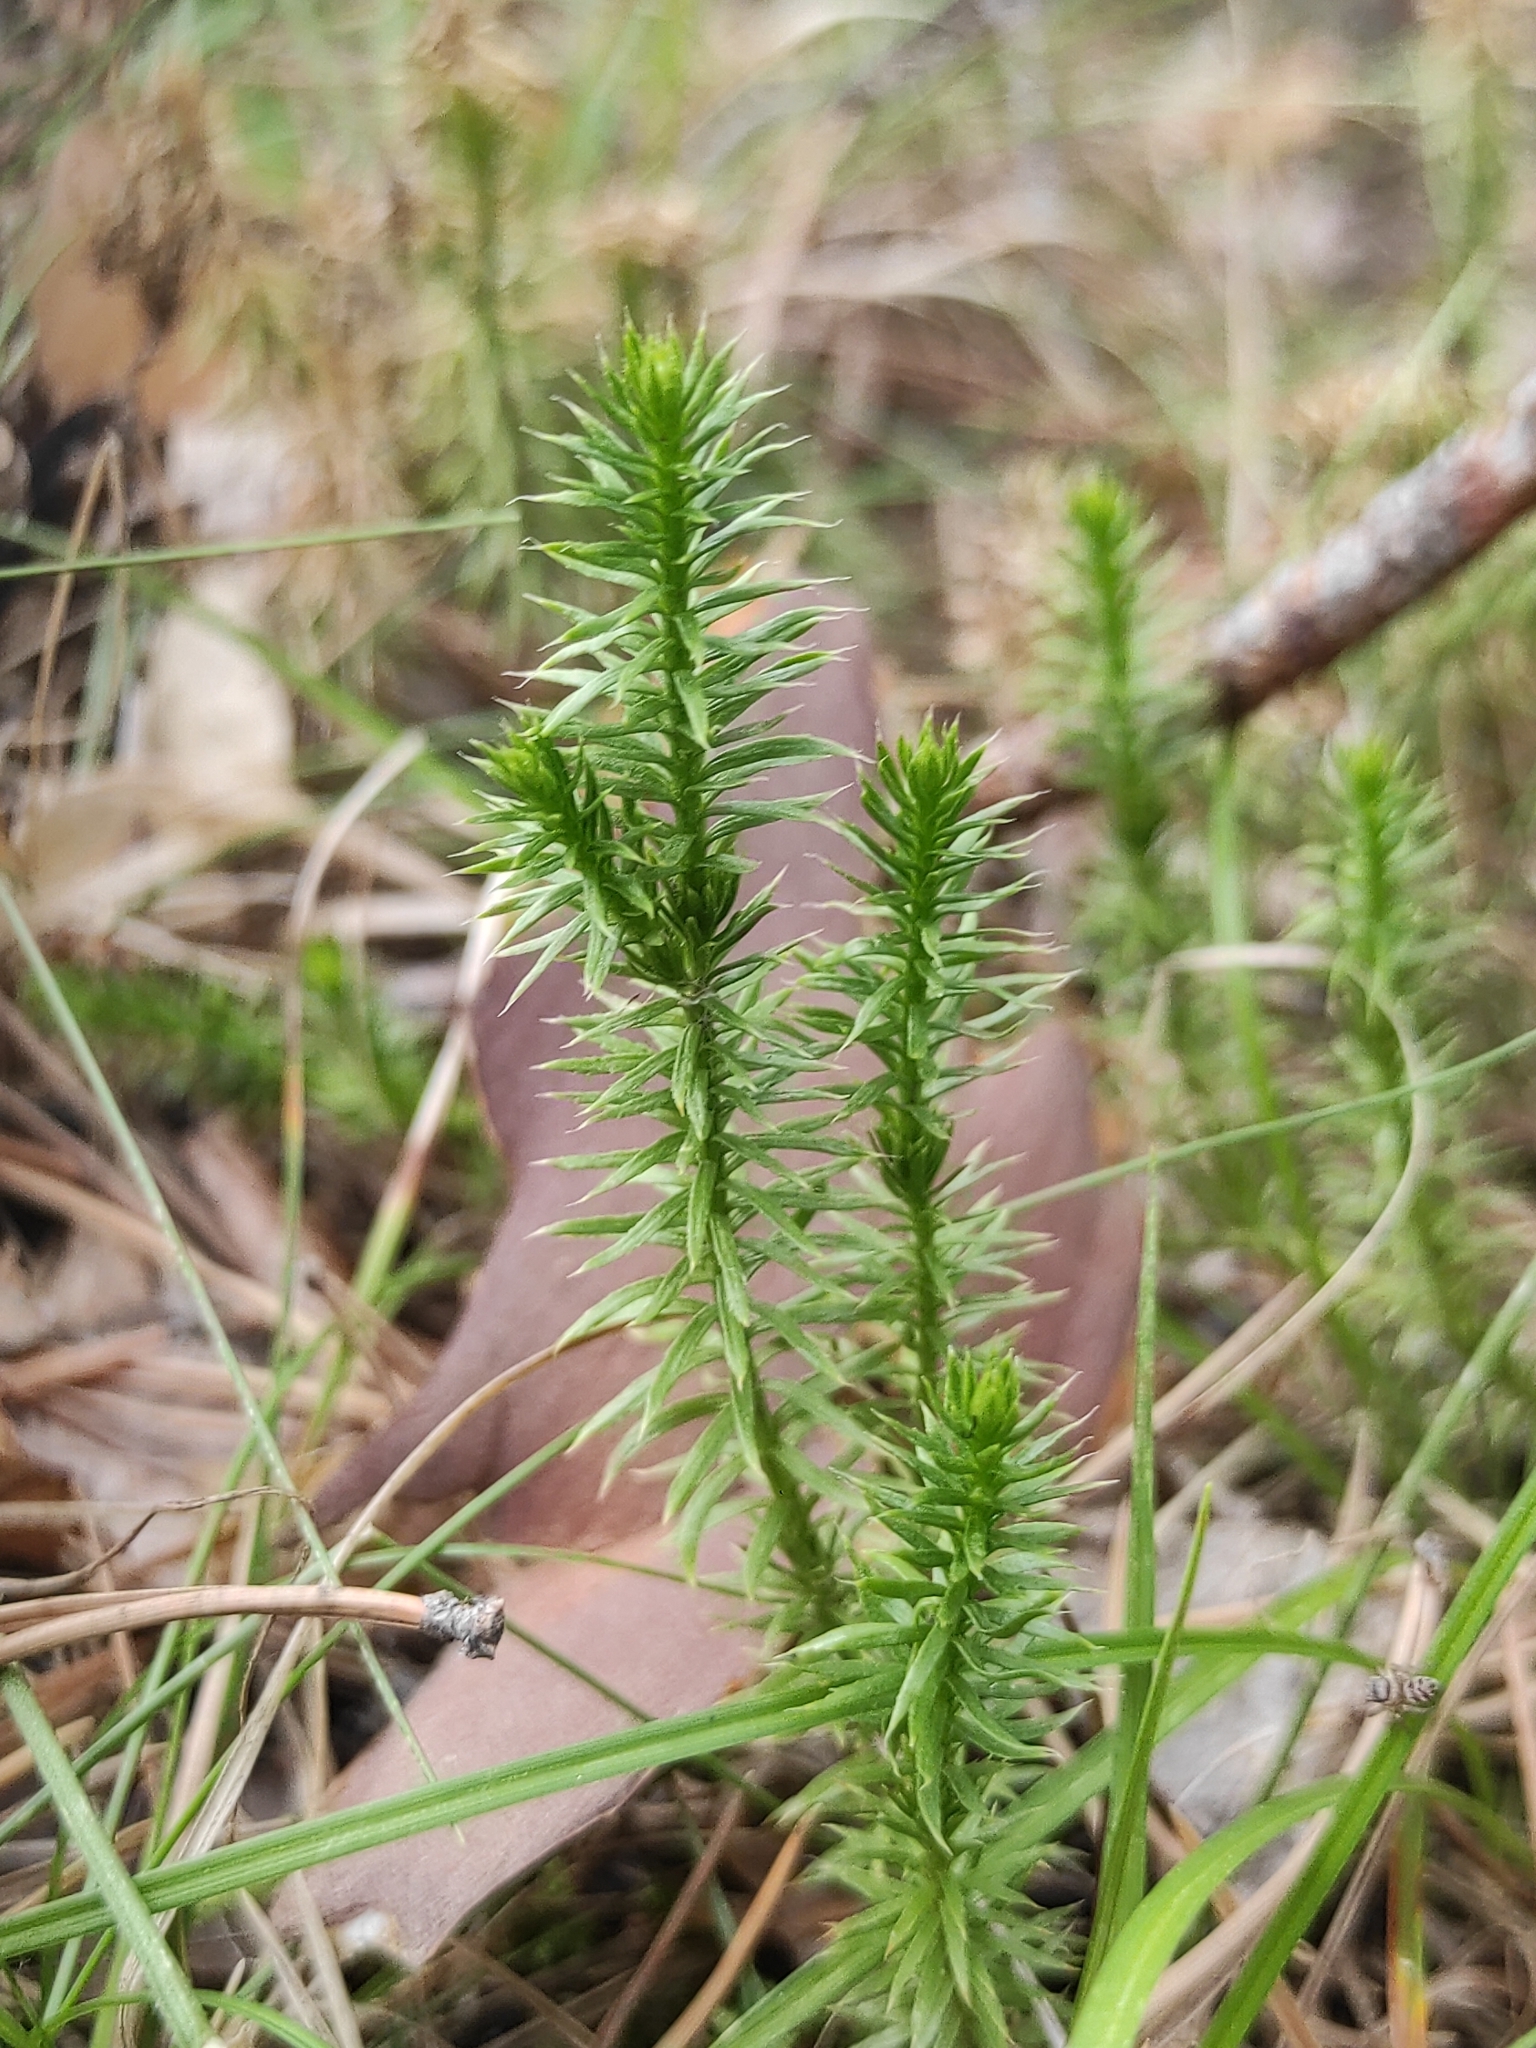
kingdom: Plantae
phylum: Tracheophyta
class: Lycopodiopsida
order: Lycopodiales
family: Lycopodiaceae
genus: Spinulum
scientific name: Spinulum annotinum
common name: Interrupted club-moss
